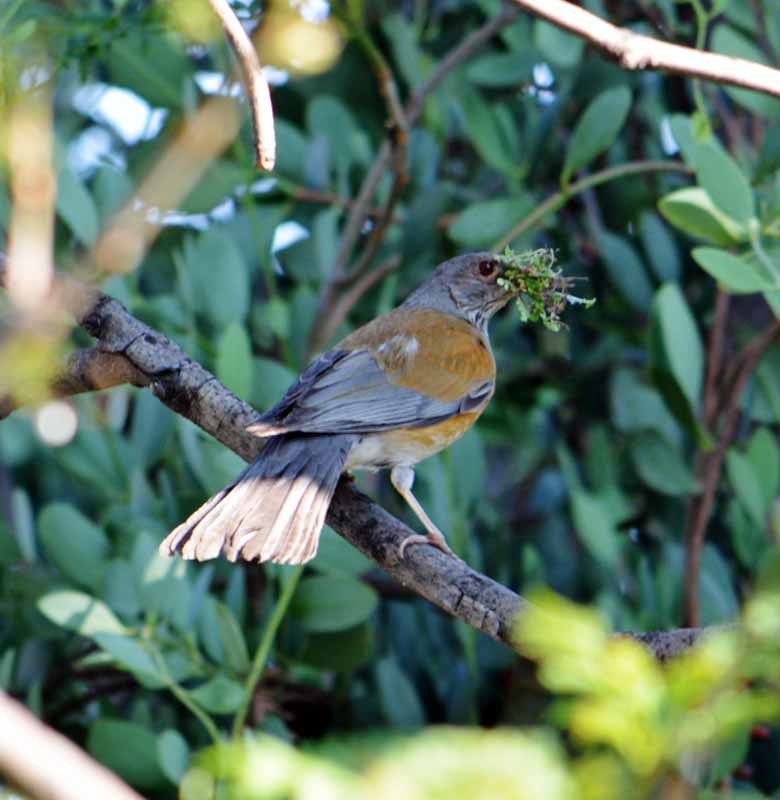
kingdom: Animalia
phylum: Chordata
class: Aves
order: Passeriformes
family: Turdidae
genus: Turdus
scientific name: Turdus rufopalliatus
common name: Rufous-backed robin
